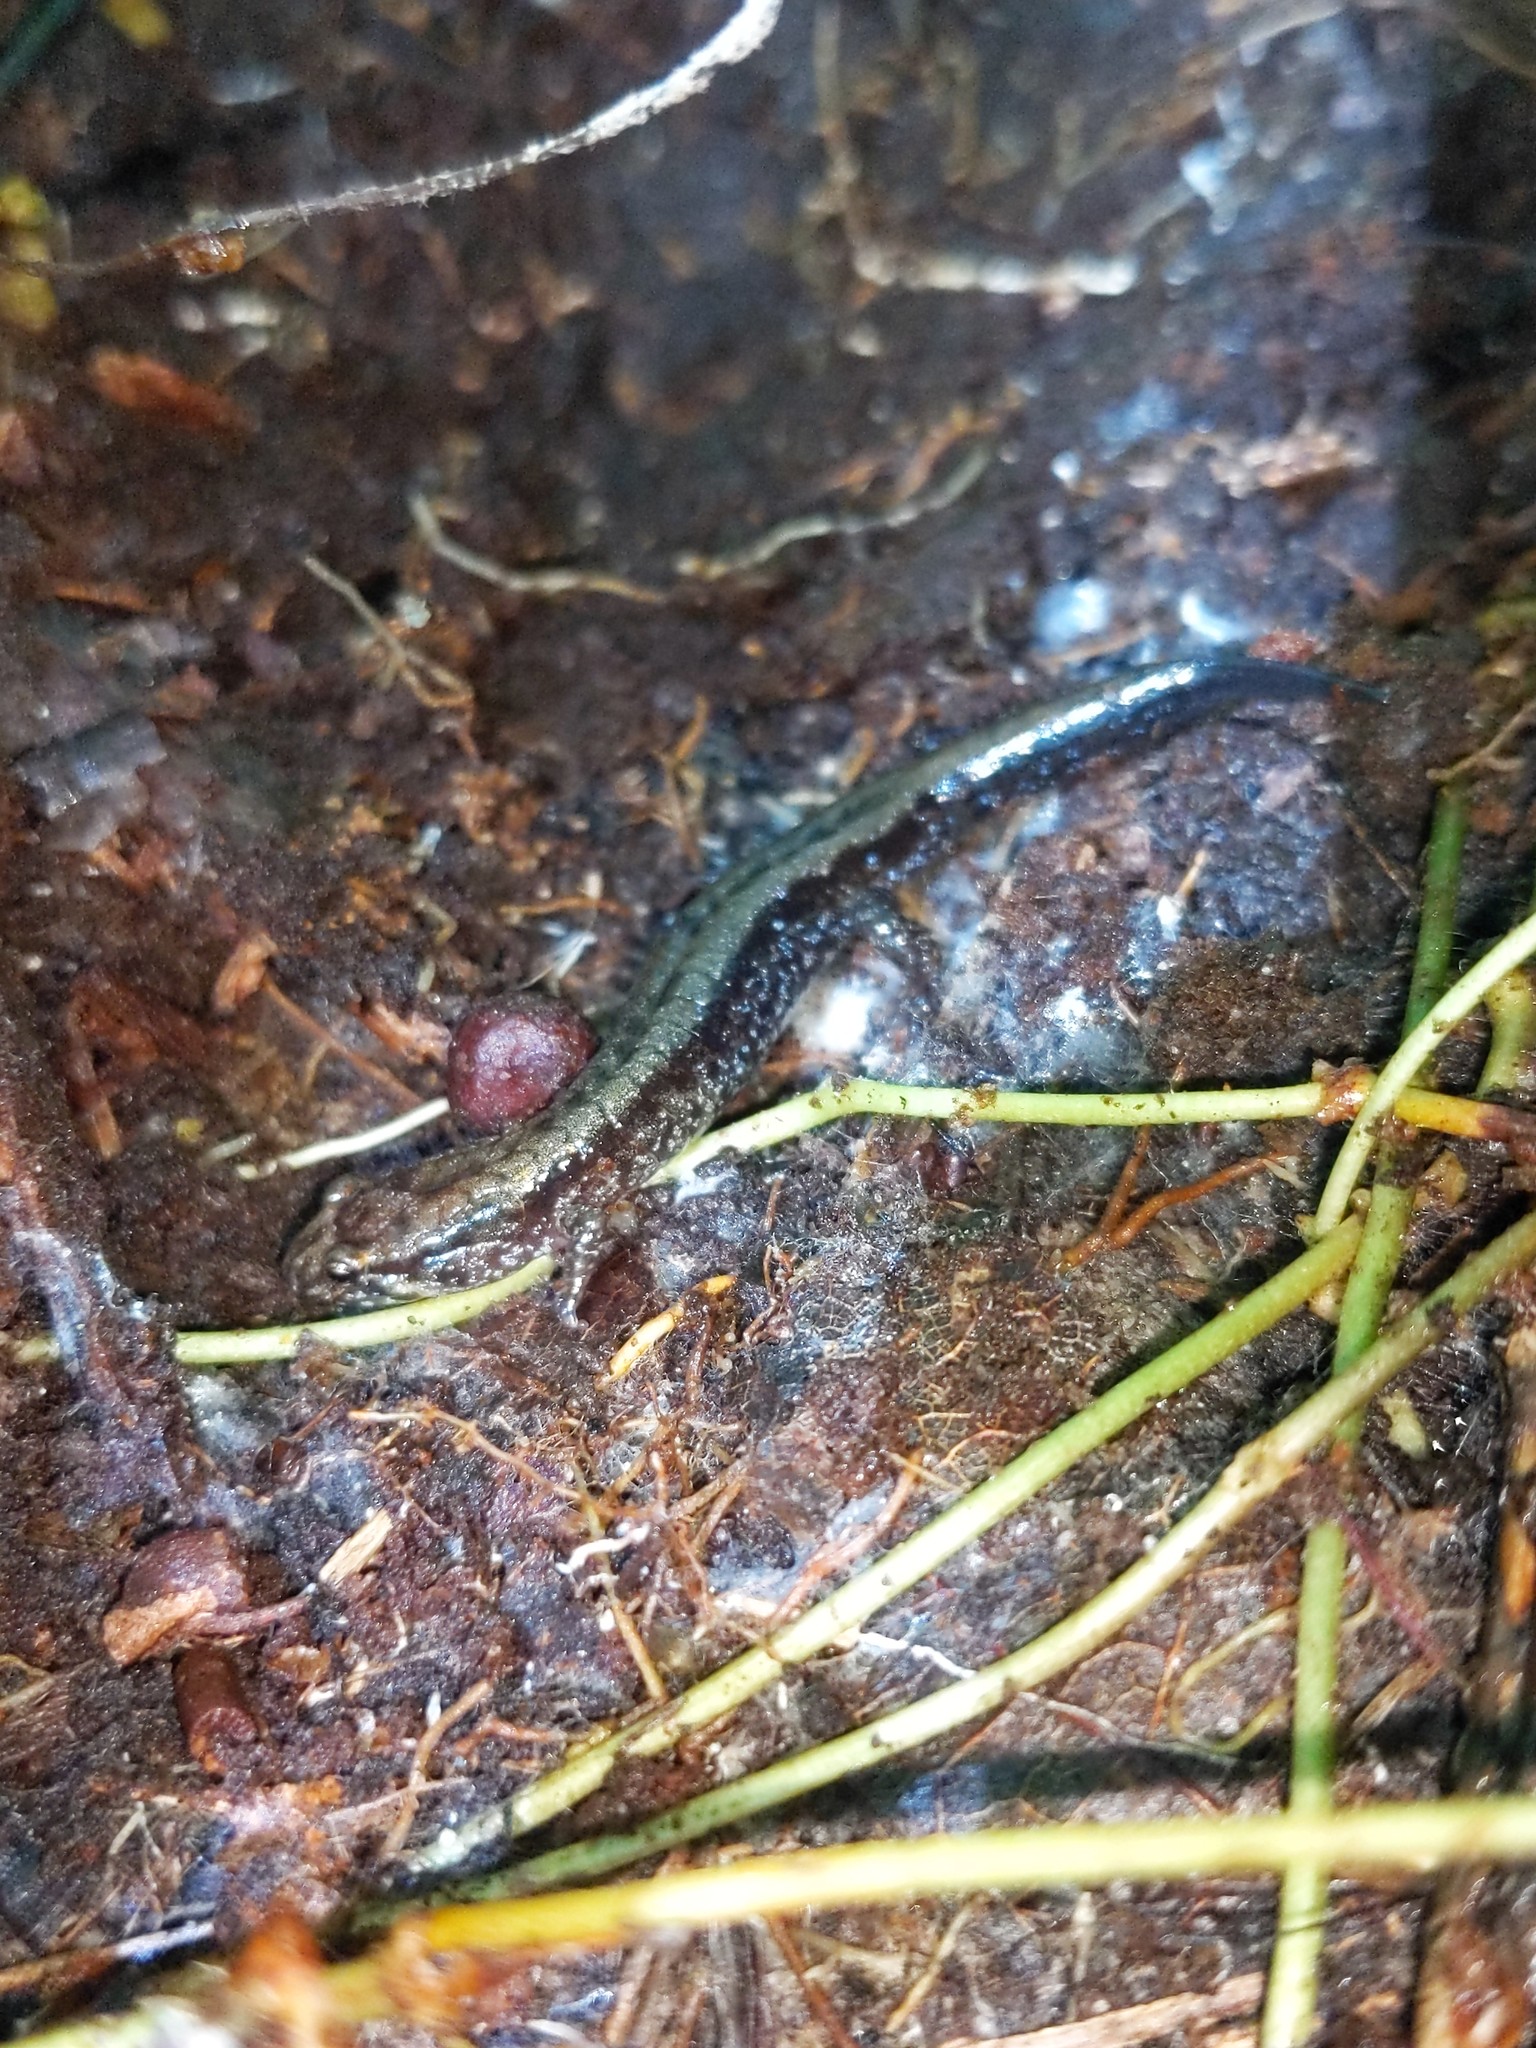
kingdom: Animalia
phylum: Chordata
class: Amphibia
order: Caudata
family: Plethodontidae
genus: Desmognathus
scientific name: Desmognathus ochrophaeus
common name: Allegheny mountain dusky salamander
